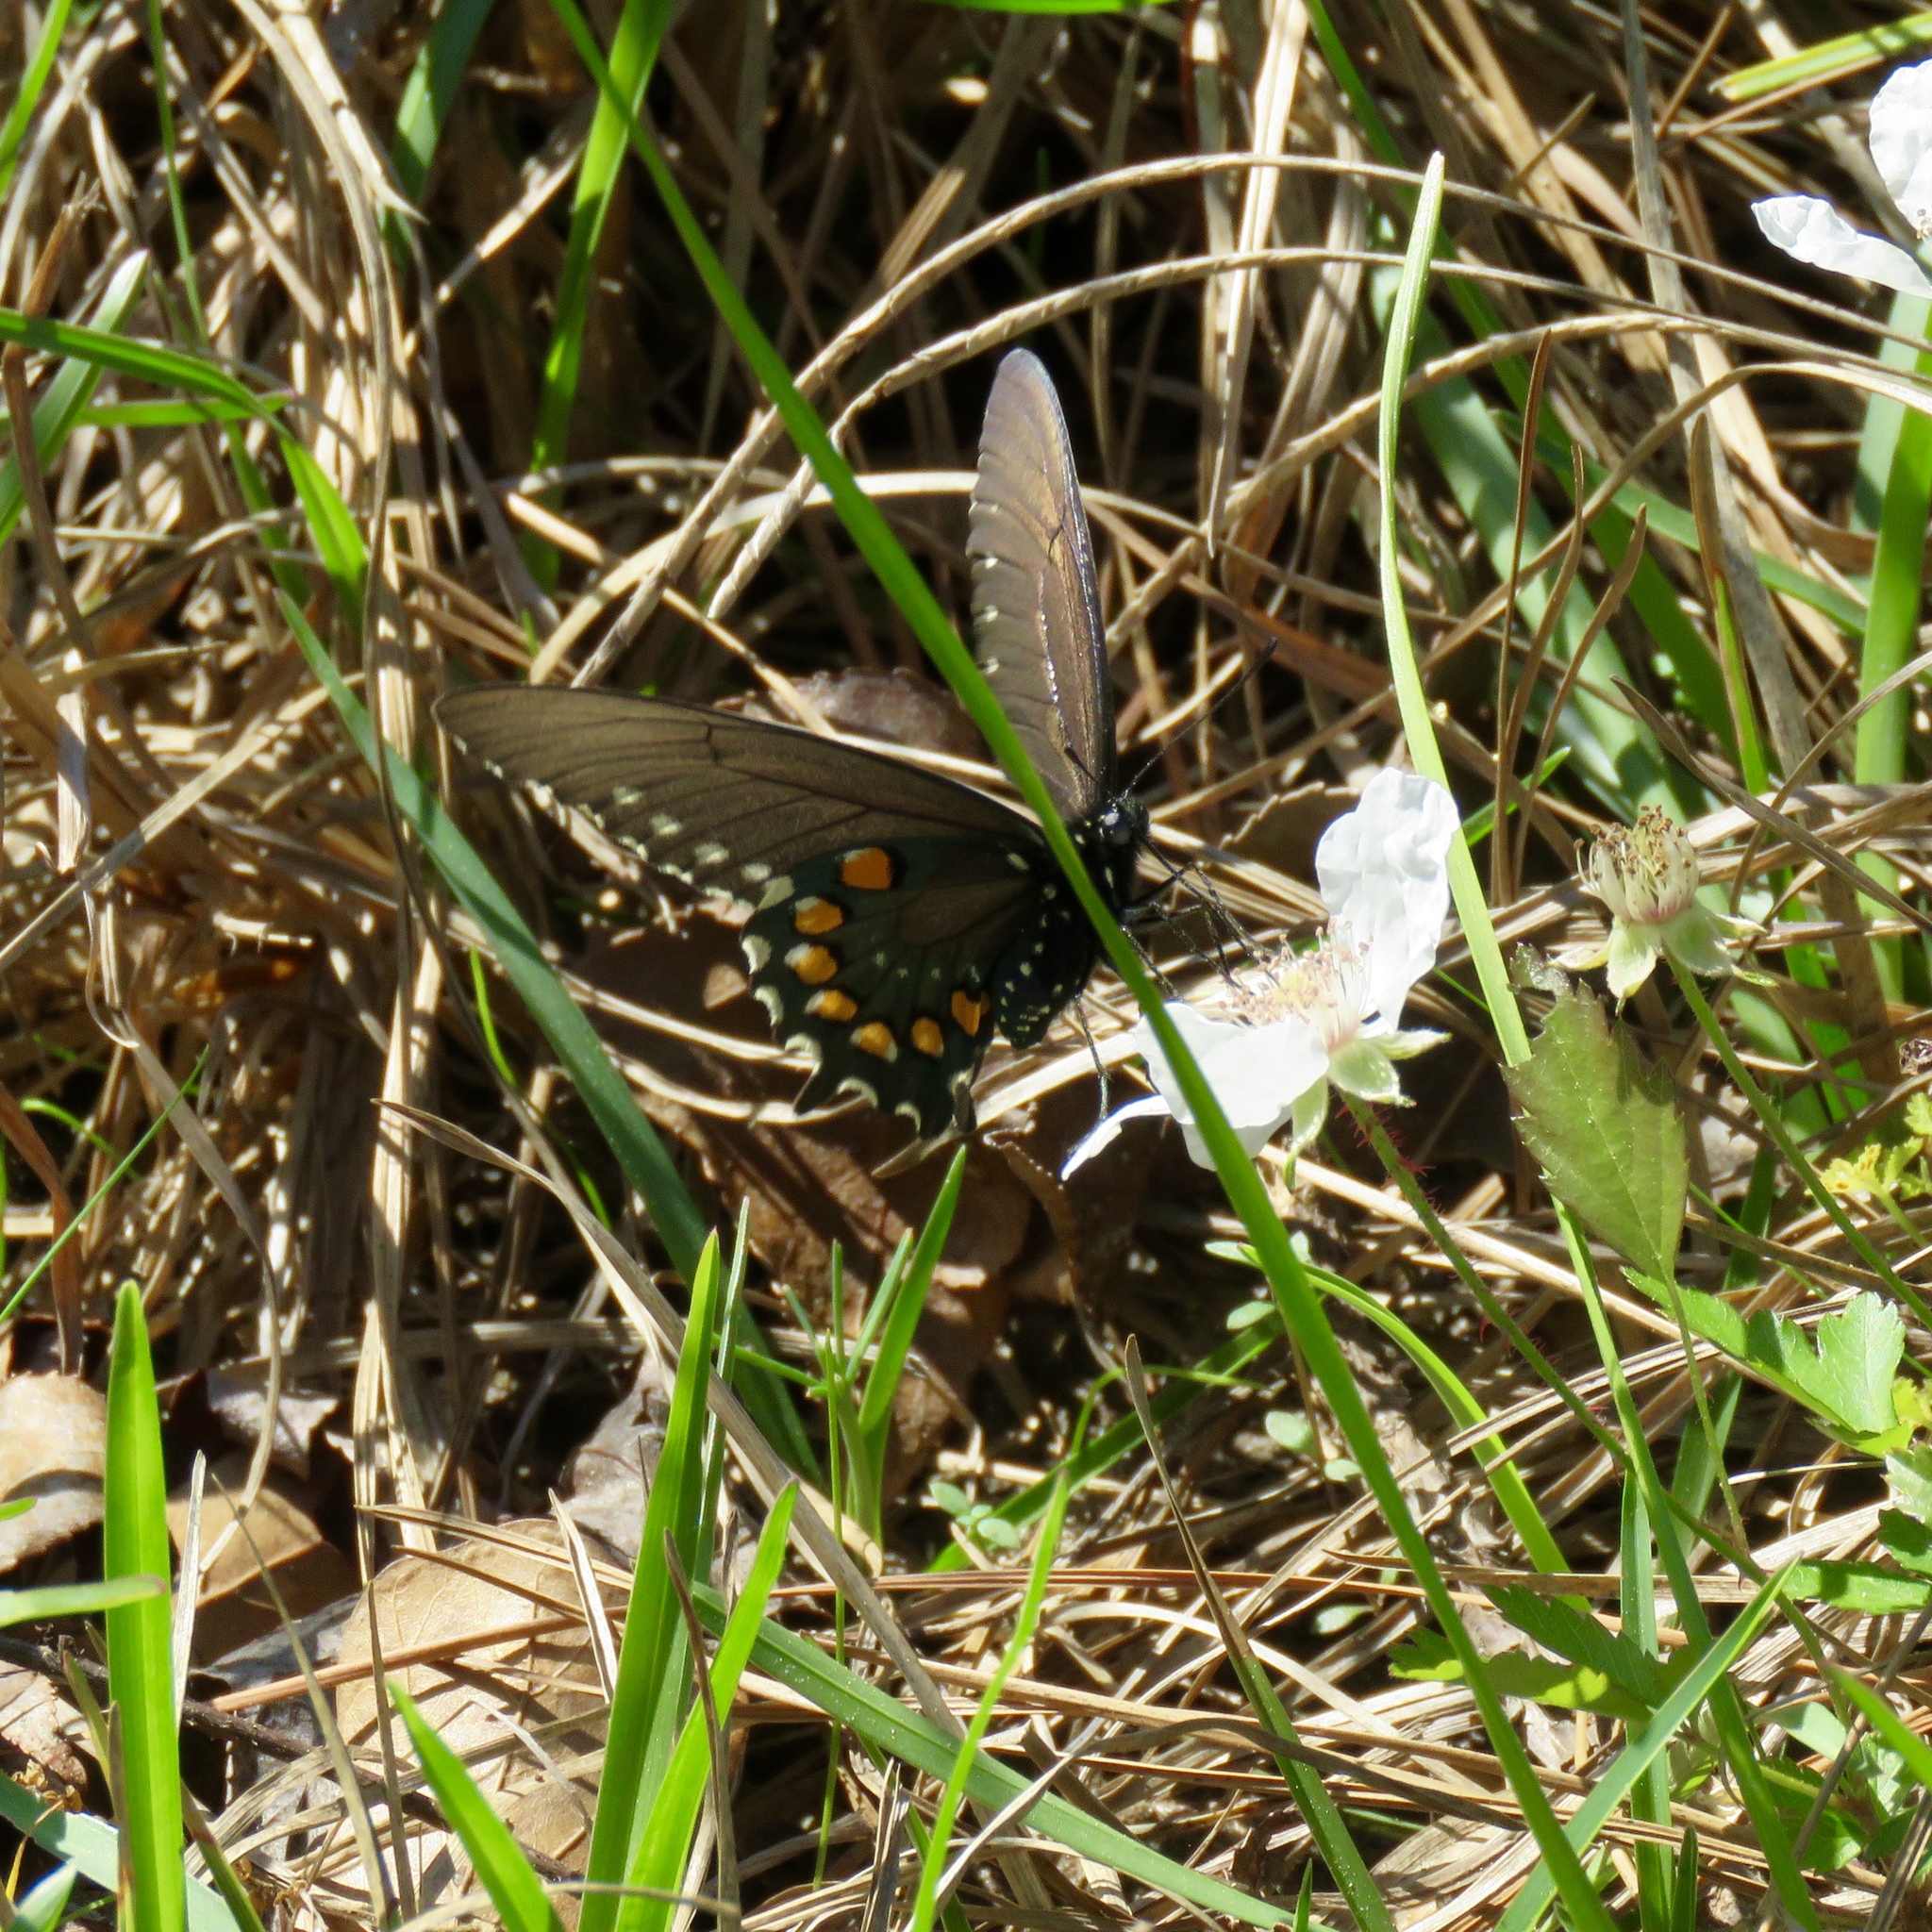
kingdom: Animalia
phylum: Arthropoda
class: Insecta
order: Lepidoptera
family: Papilionidae
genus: Battus
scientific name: Battus philenor
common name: Pipevine swallowtail
